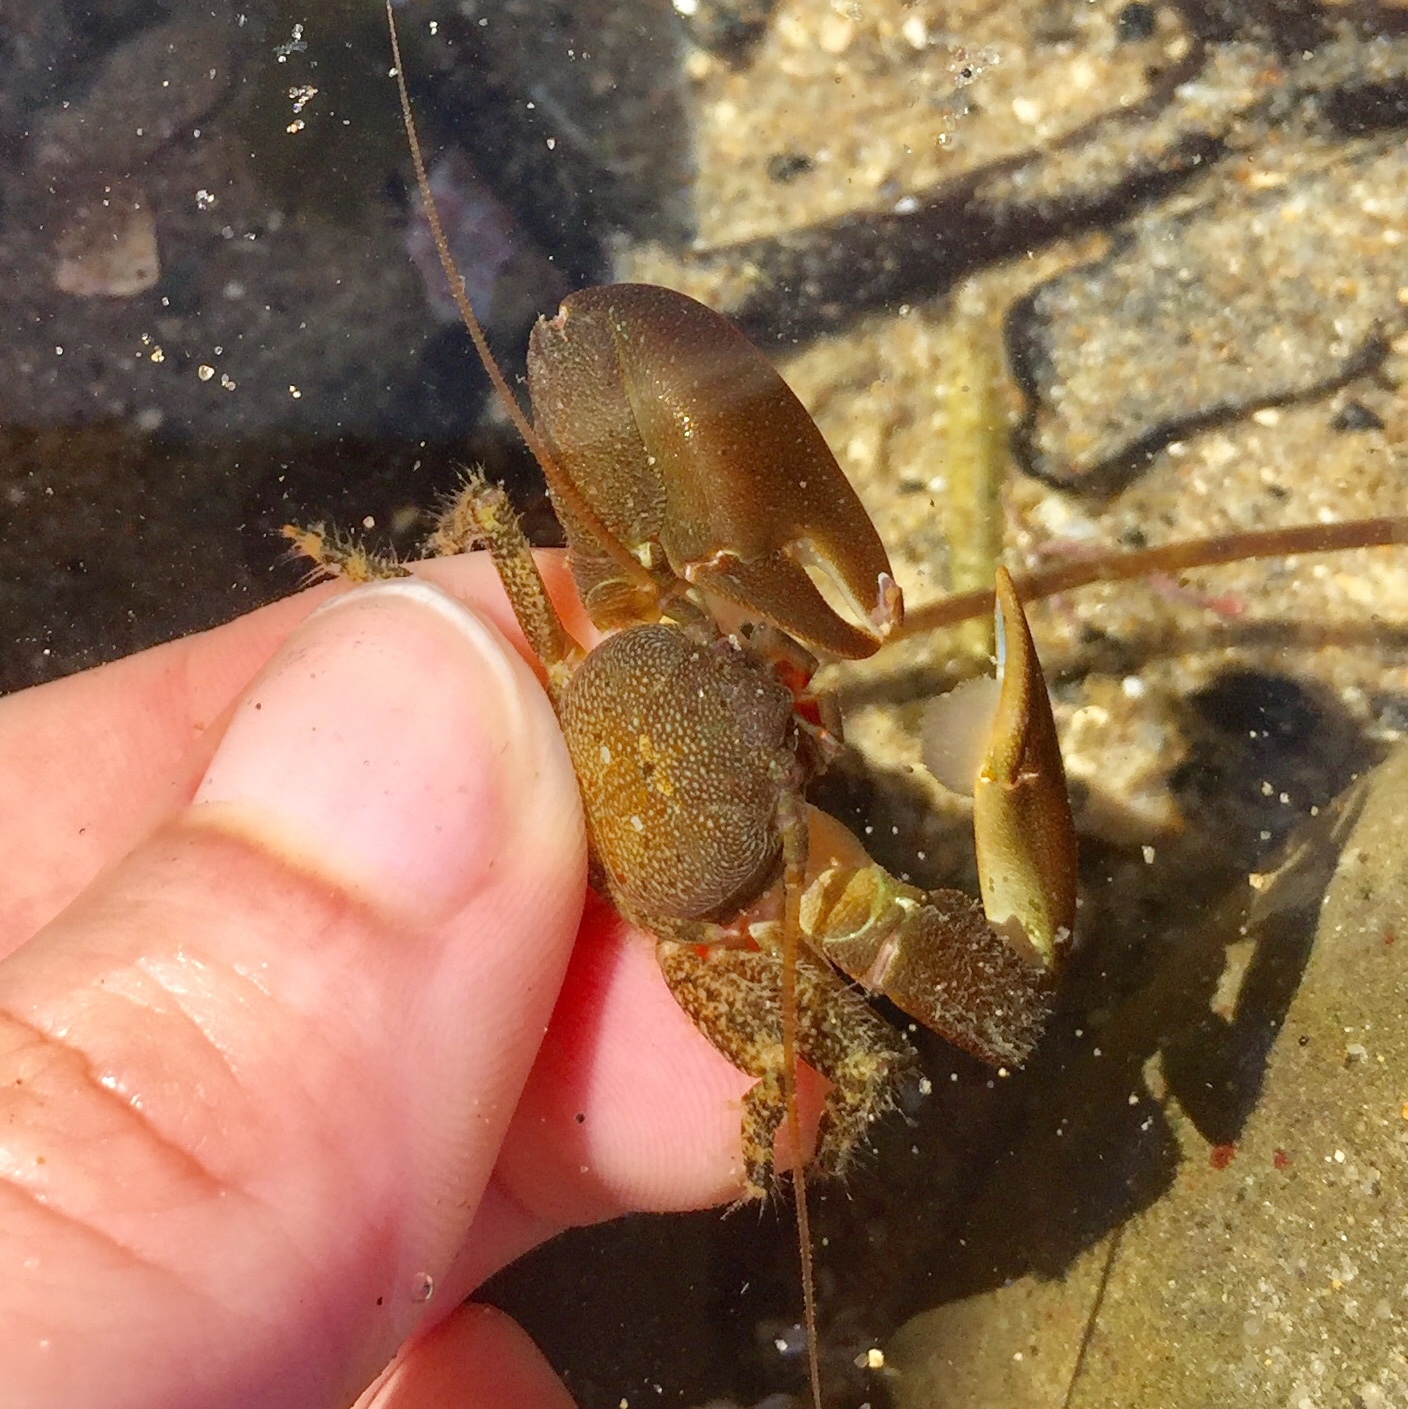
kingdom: Animalia
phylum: Arthropoda
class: Malacostraca
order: Decapoda
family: Porcellanidae
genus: Petrolisthes
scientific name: Petrolisthes cabrilloi
